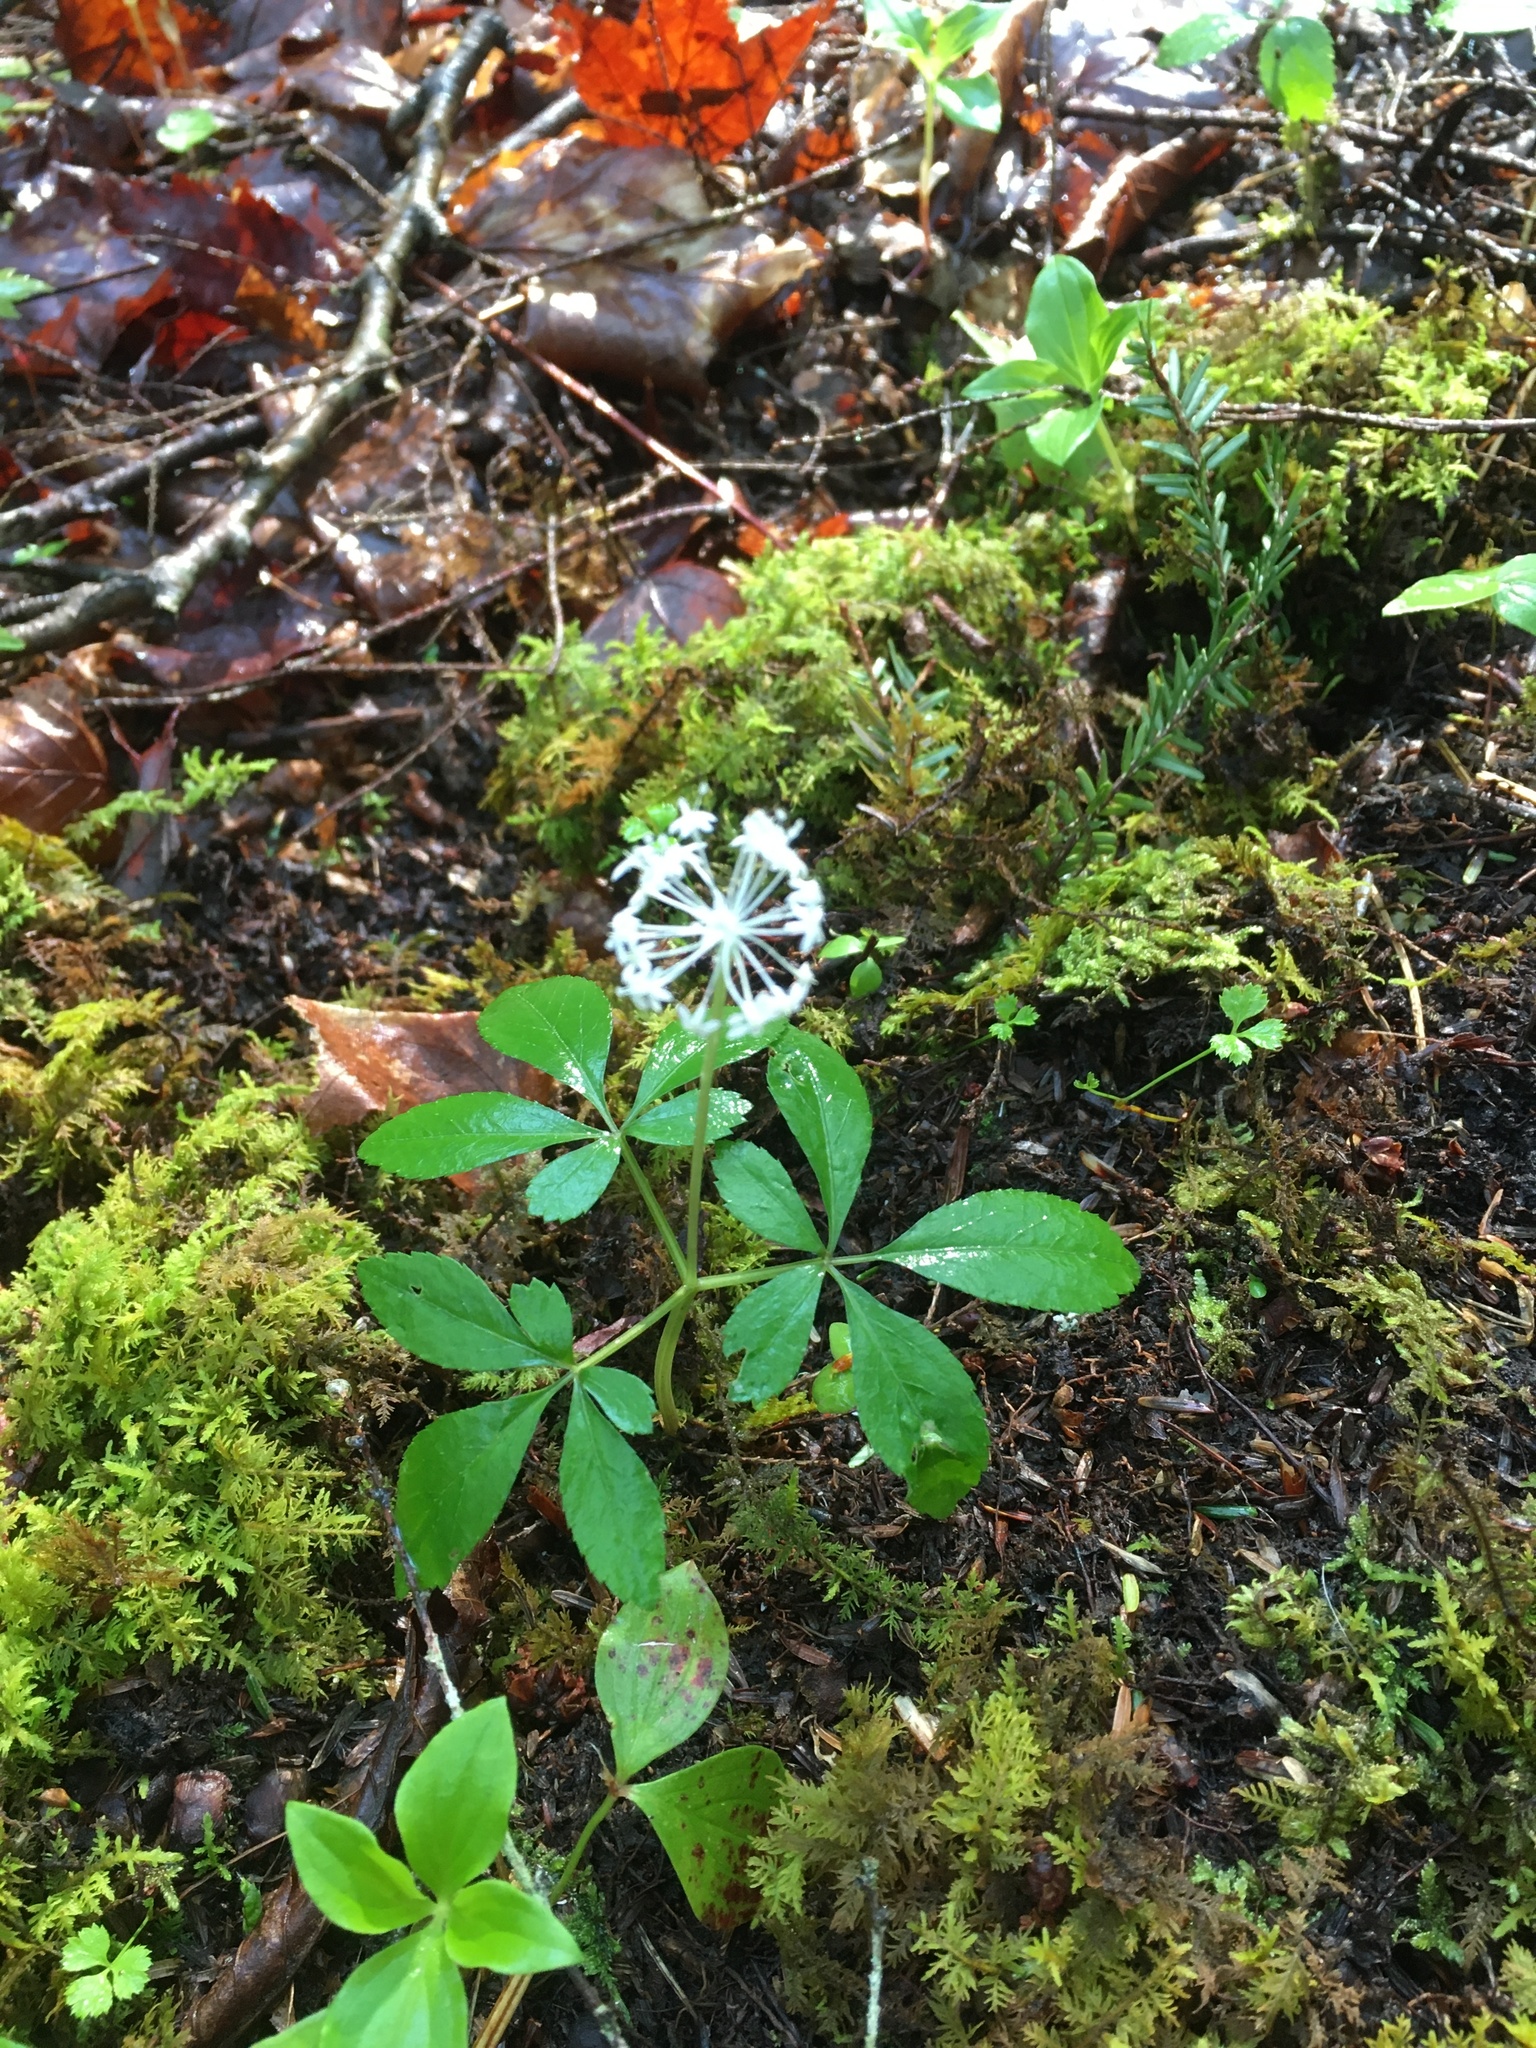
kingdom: Plantae
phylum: Tracheophyta
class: Magnoliopsida
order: Apiales
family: Araliaceae
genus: Panax
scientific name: Panax trifolius
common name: Dwarf ginseng
